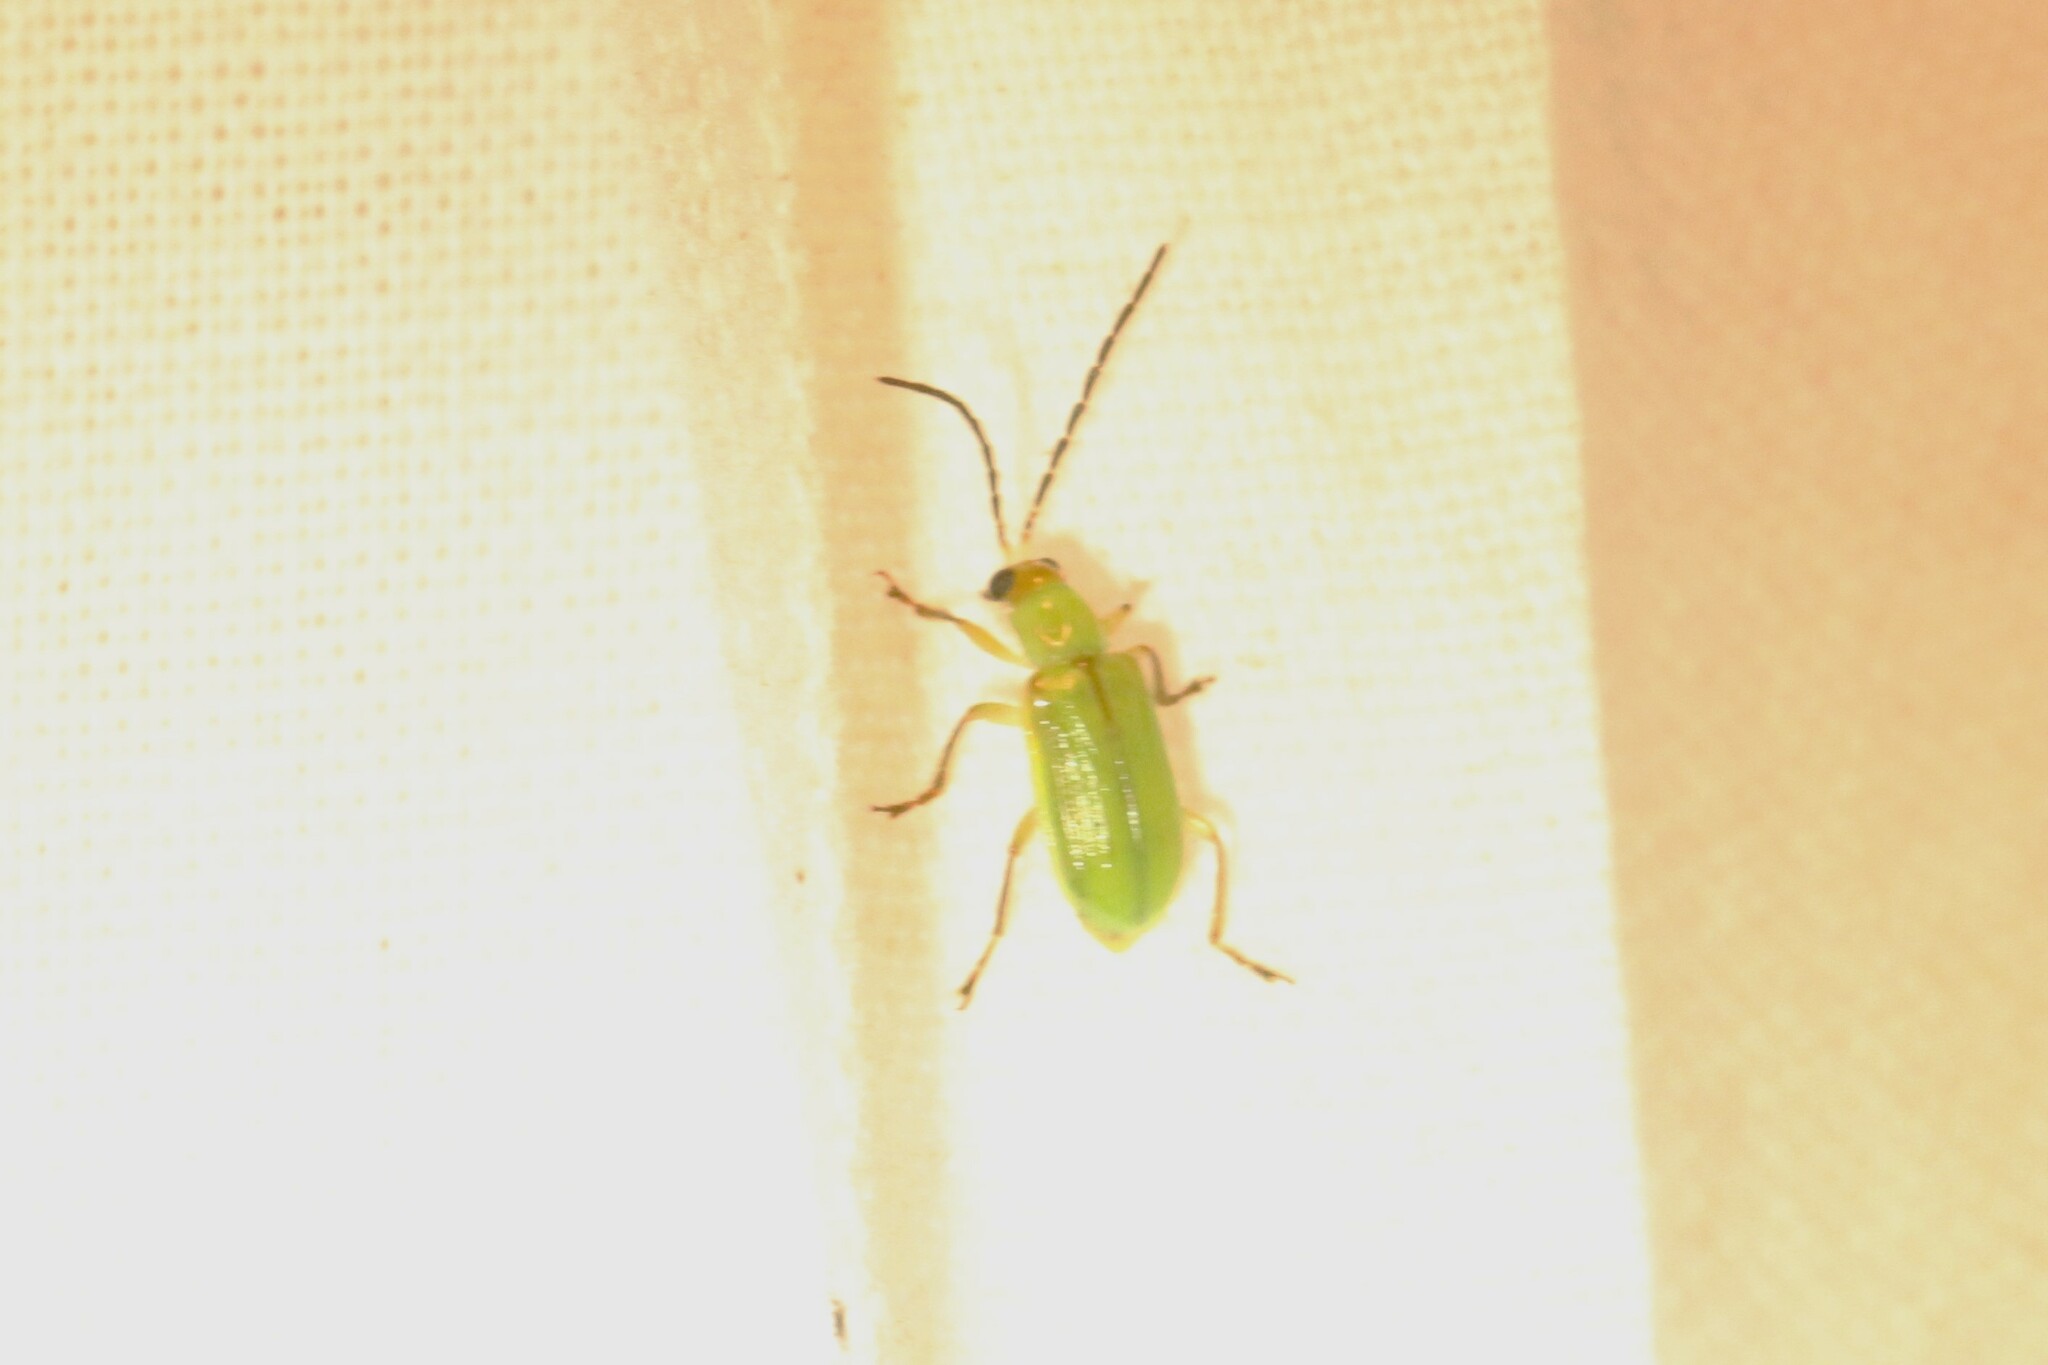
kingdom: Animalia
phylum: Arthropoda
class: Insecta
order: Coleoptera
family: Chrysomelidae
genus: Diabrotica
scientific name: Diabrotica barberi
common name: Northern corn rootworm
